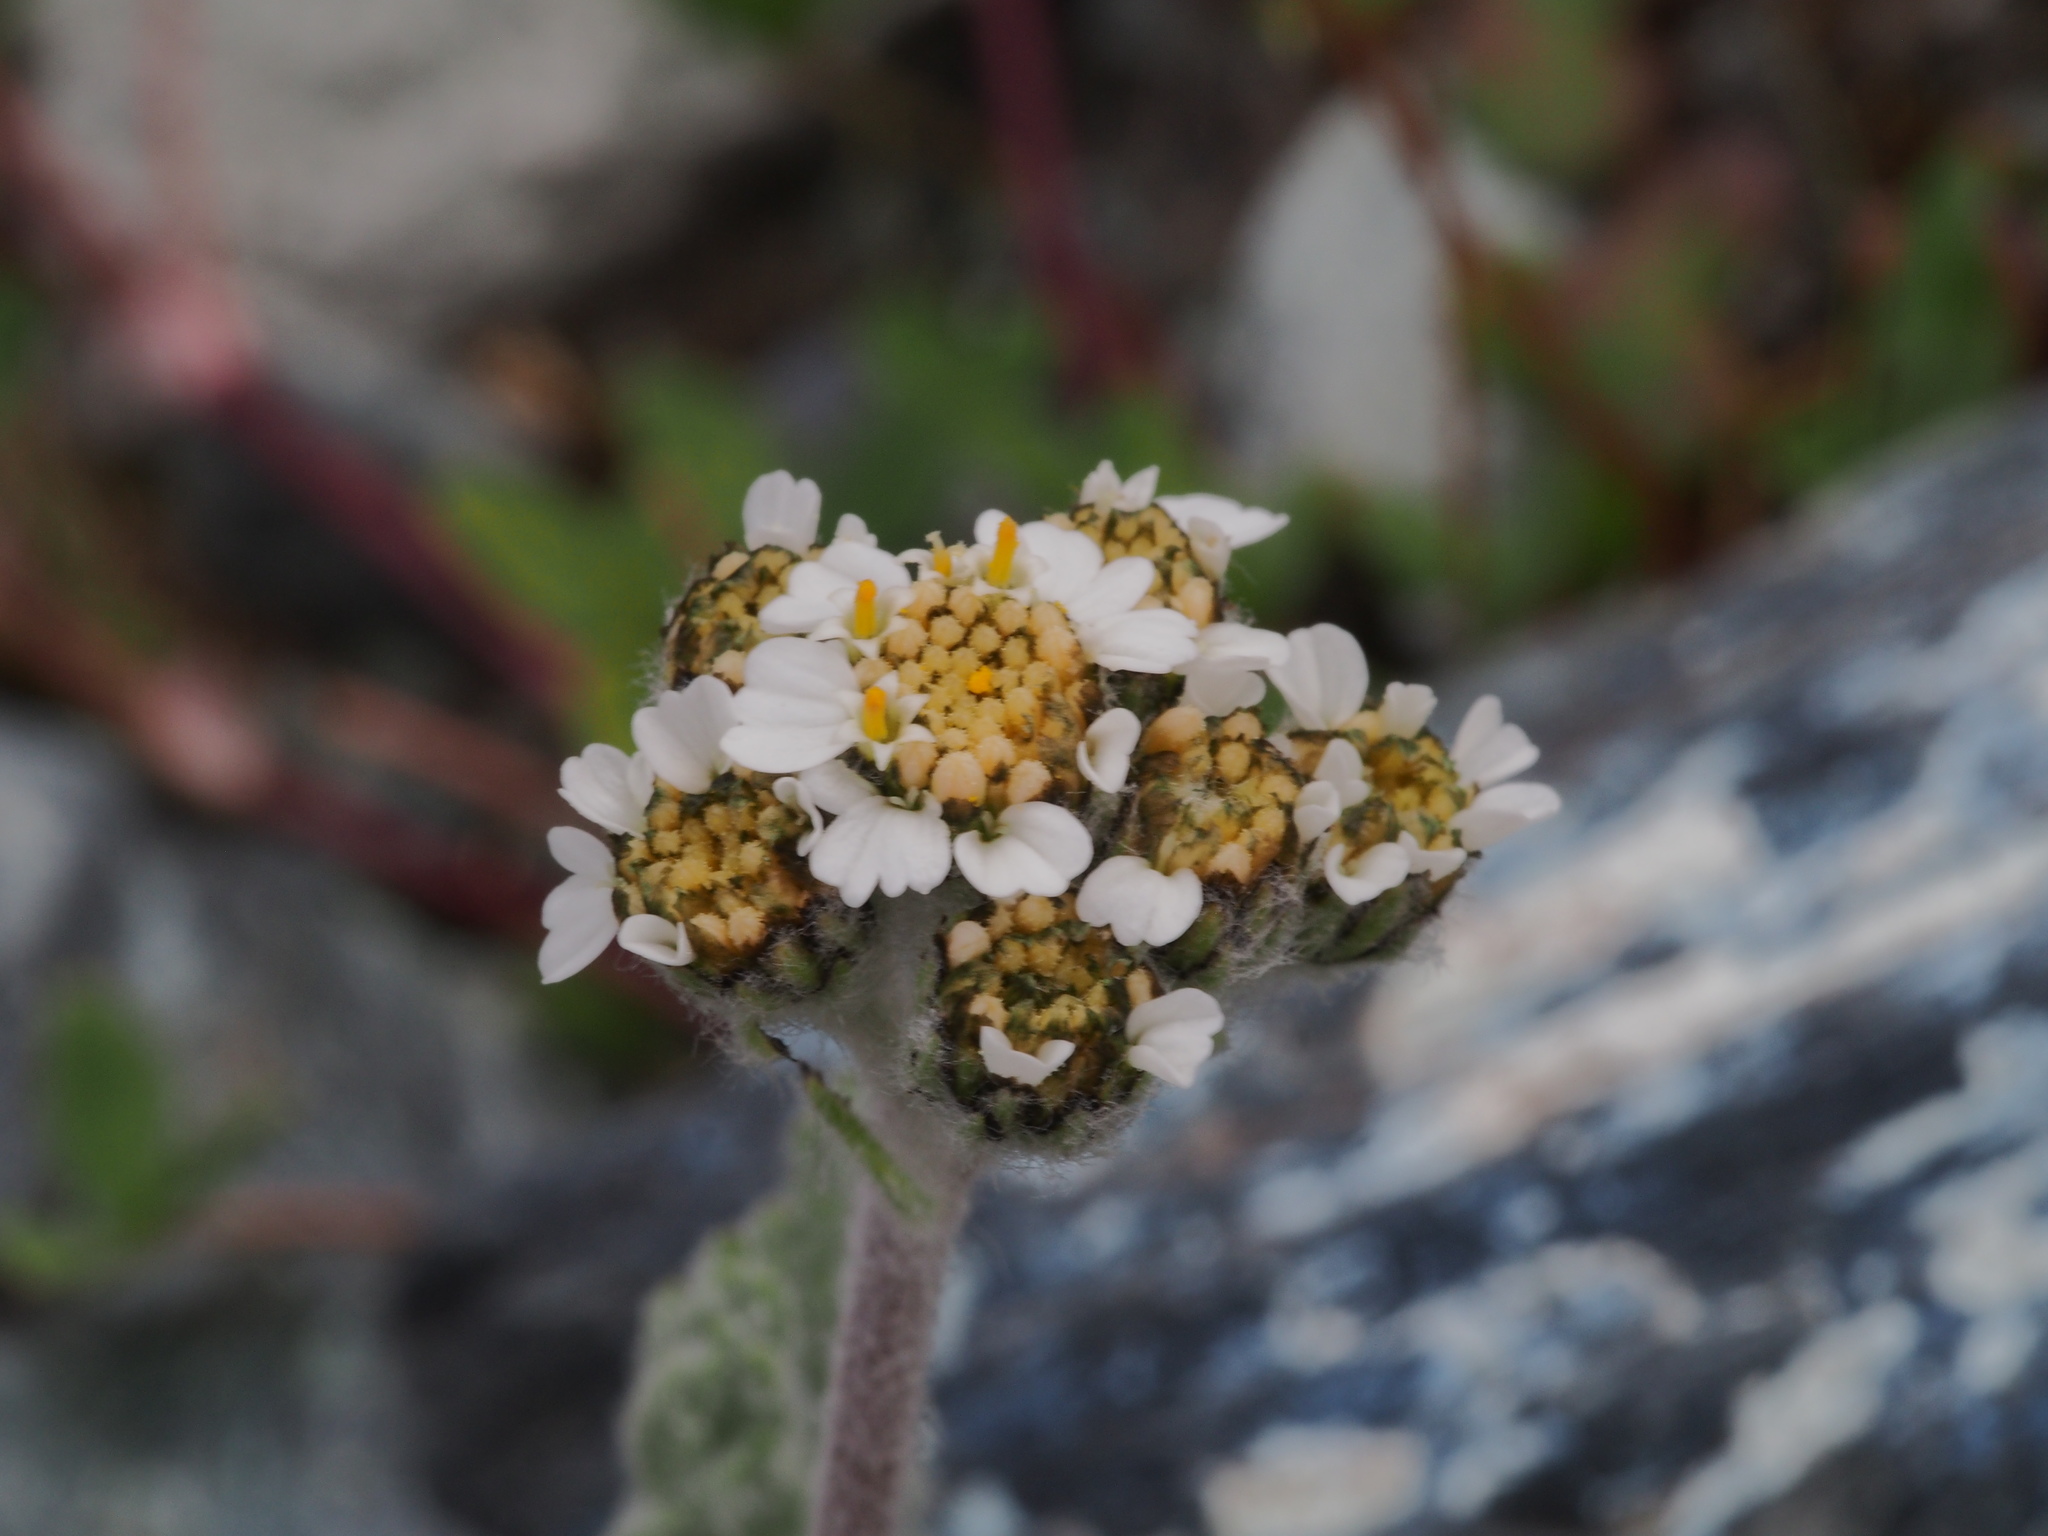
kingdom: Plantae
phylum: Tracheophyta
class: Magnoliopsida
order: Asterales
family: Asteraceae
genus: Achillea
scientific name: Achillea nana
